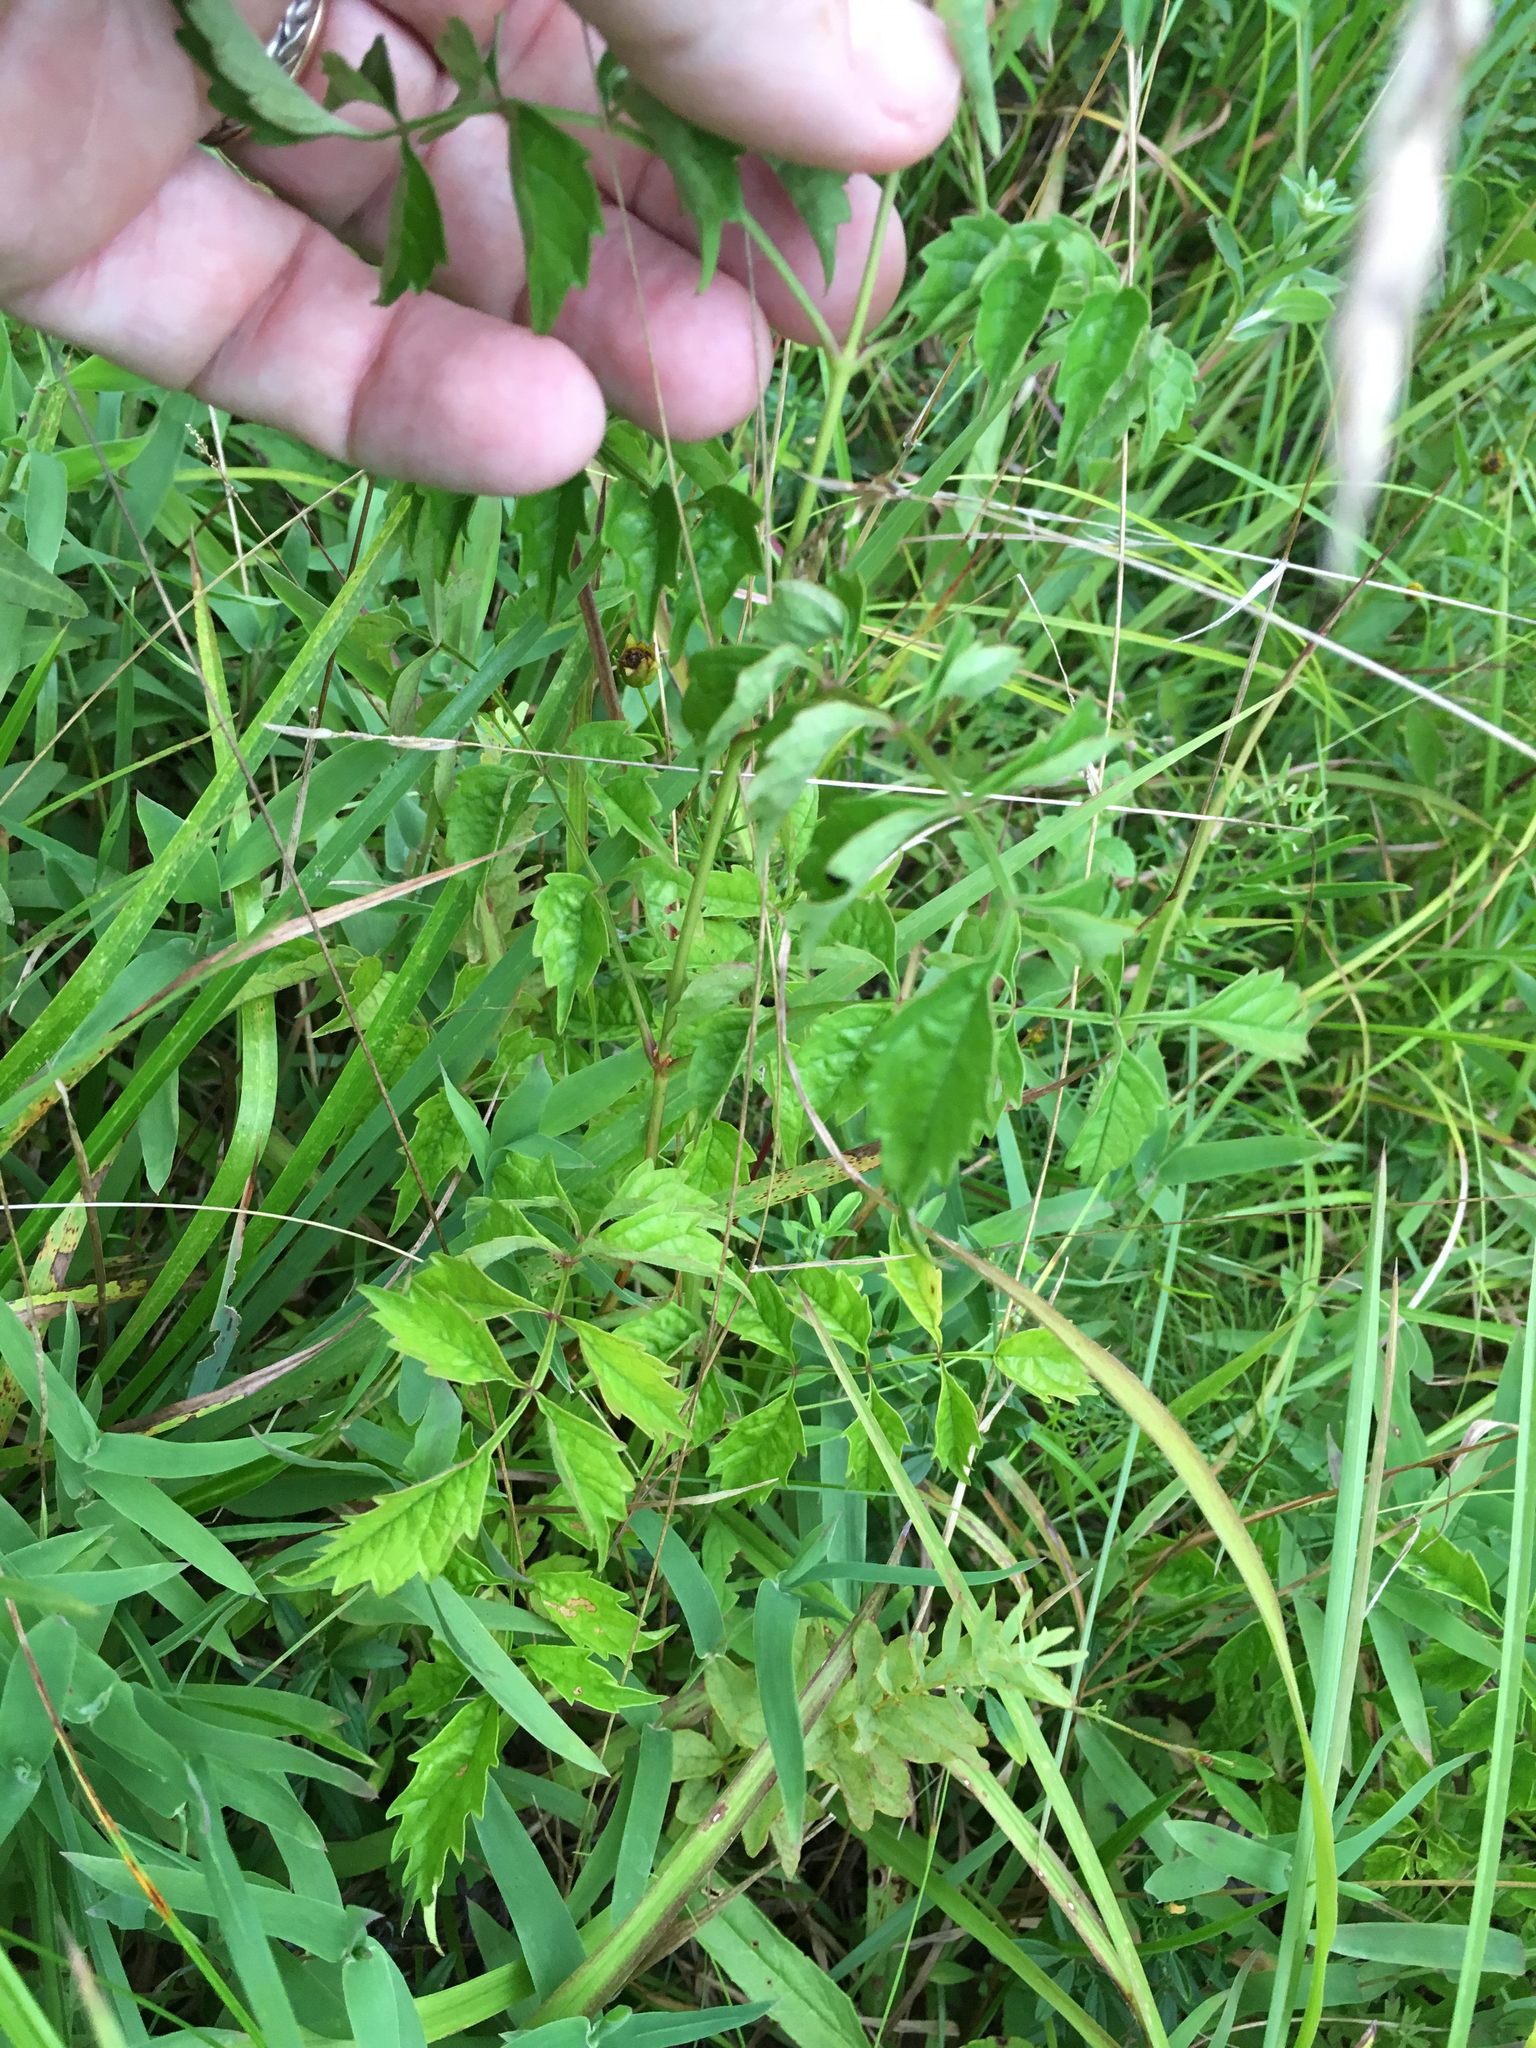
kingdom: Plantae
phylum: Tracheophyta
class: Magnoliopsida
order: Lamiales
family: Bignoniaceae
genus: Campsis
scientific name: Campsis radicans
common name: Trumpet-creeper
